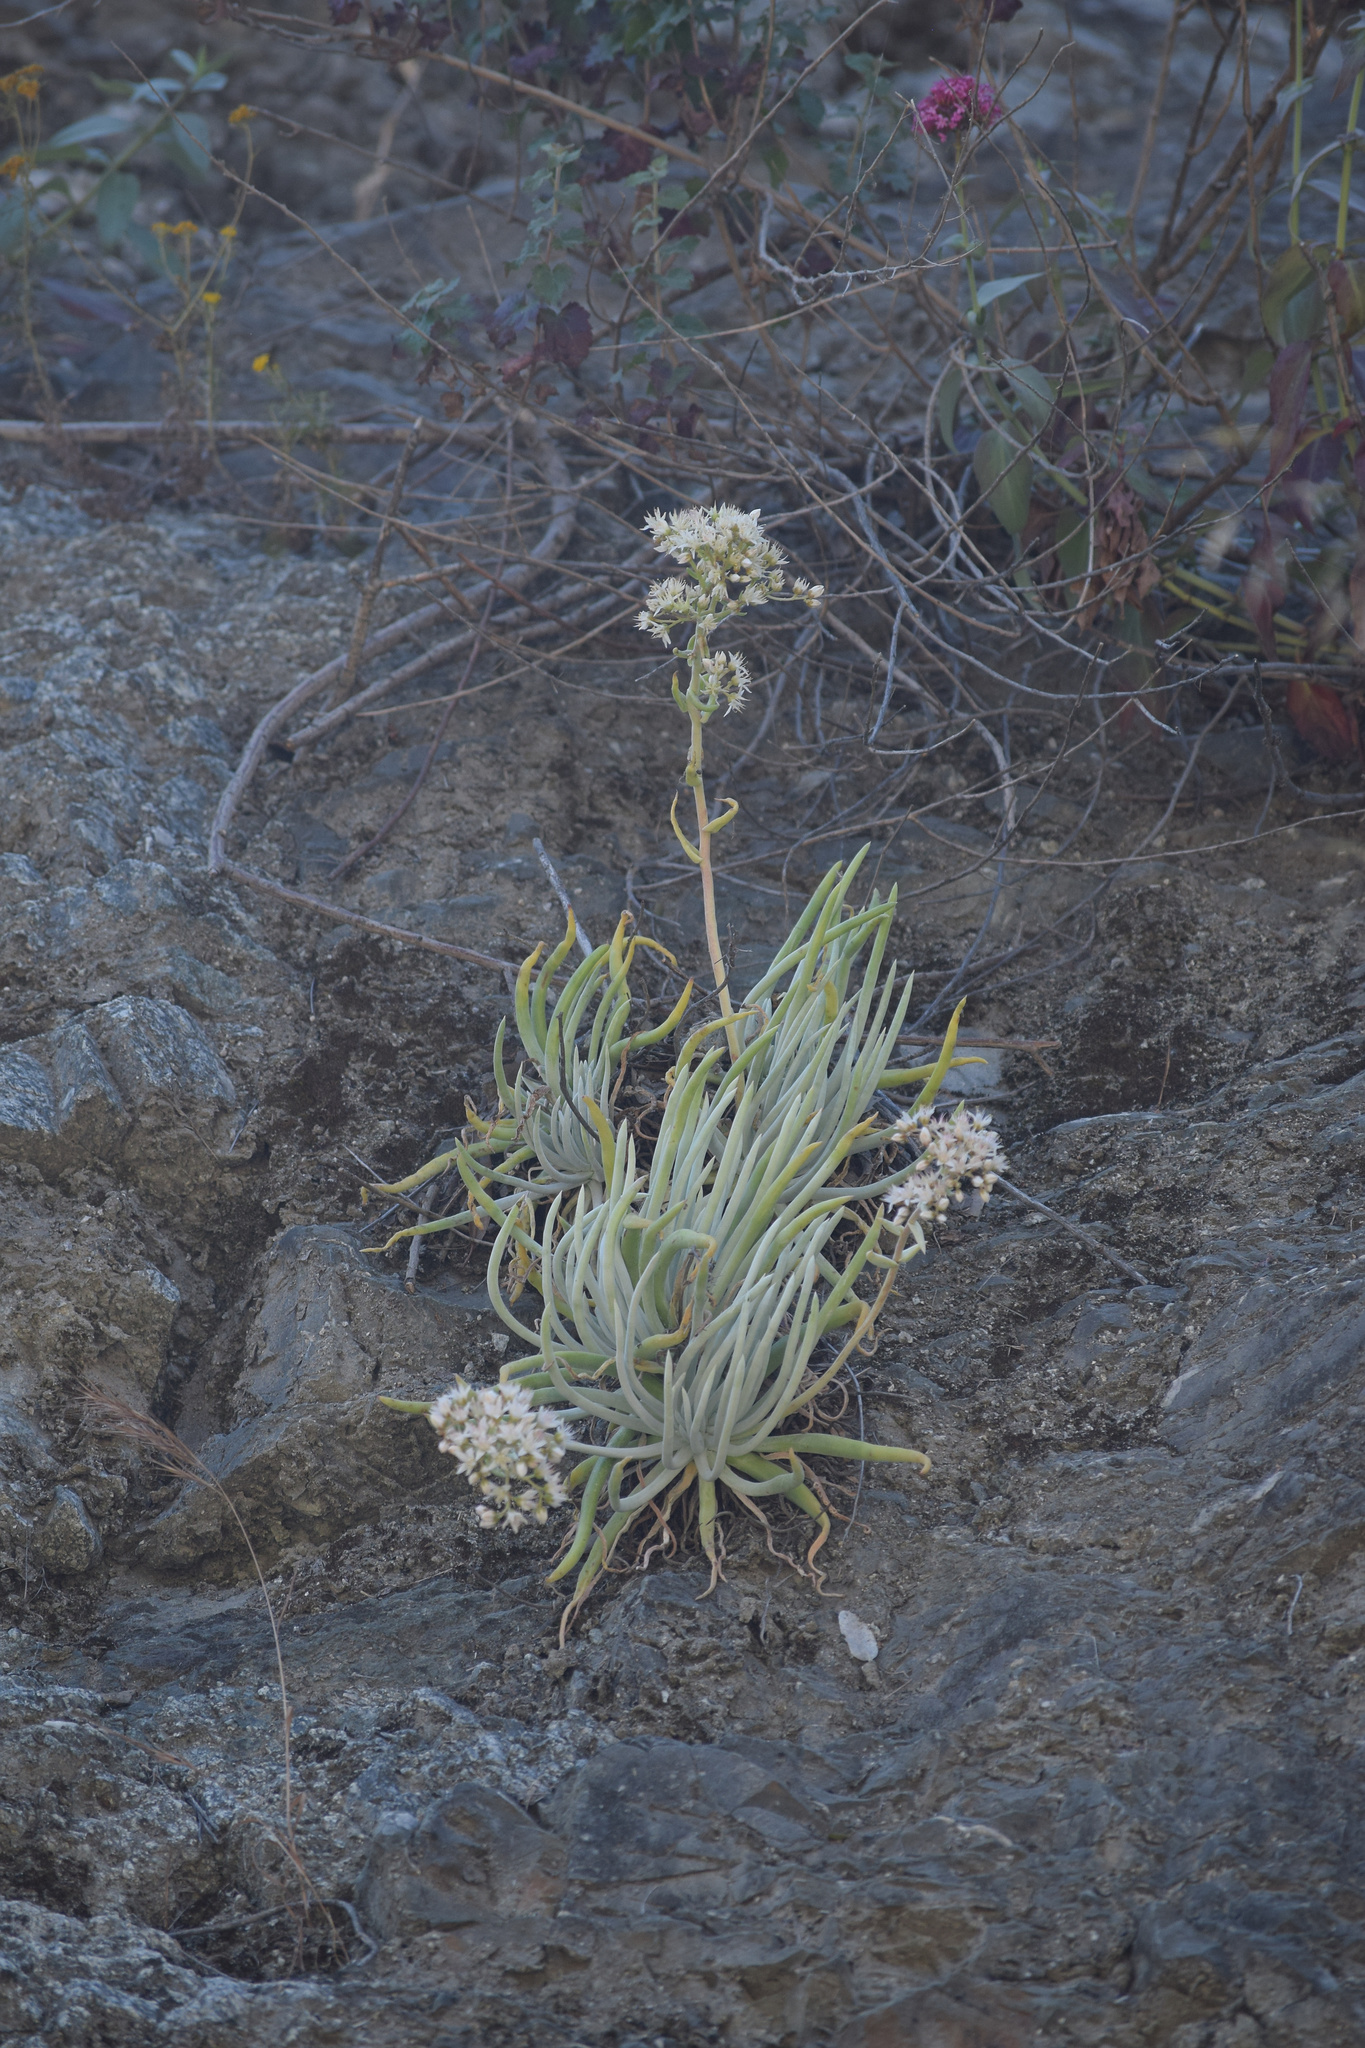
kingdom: Plantae
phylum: Tracheophyta
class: Magnoliopsida
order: Saxifragales
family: Crassulaceae
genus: Dudleya
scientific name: Dudleya densiflora
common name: San gabriel mountains dudleya
